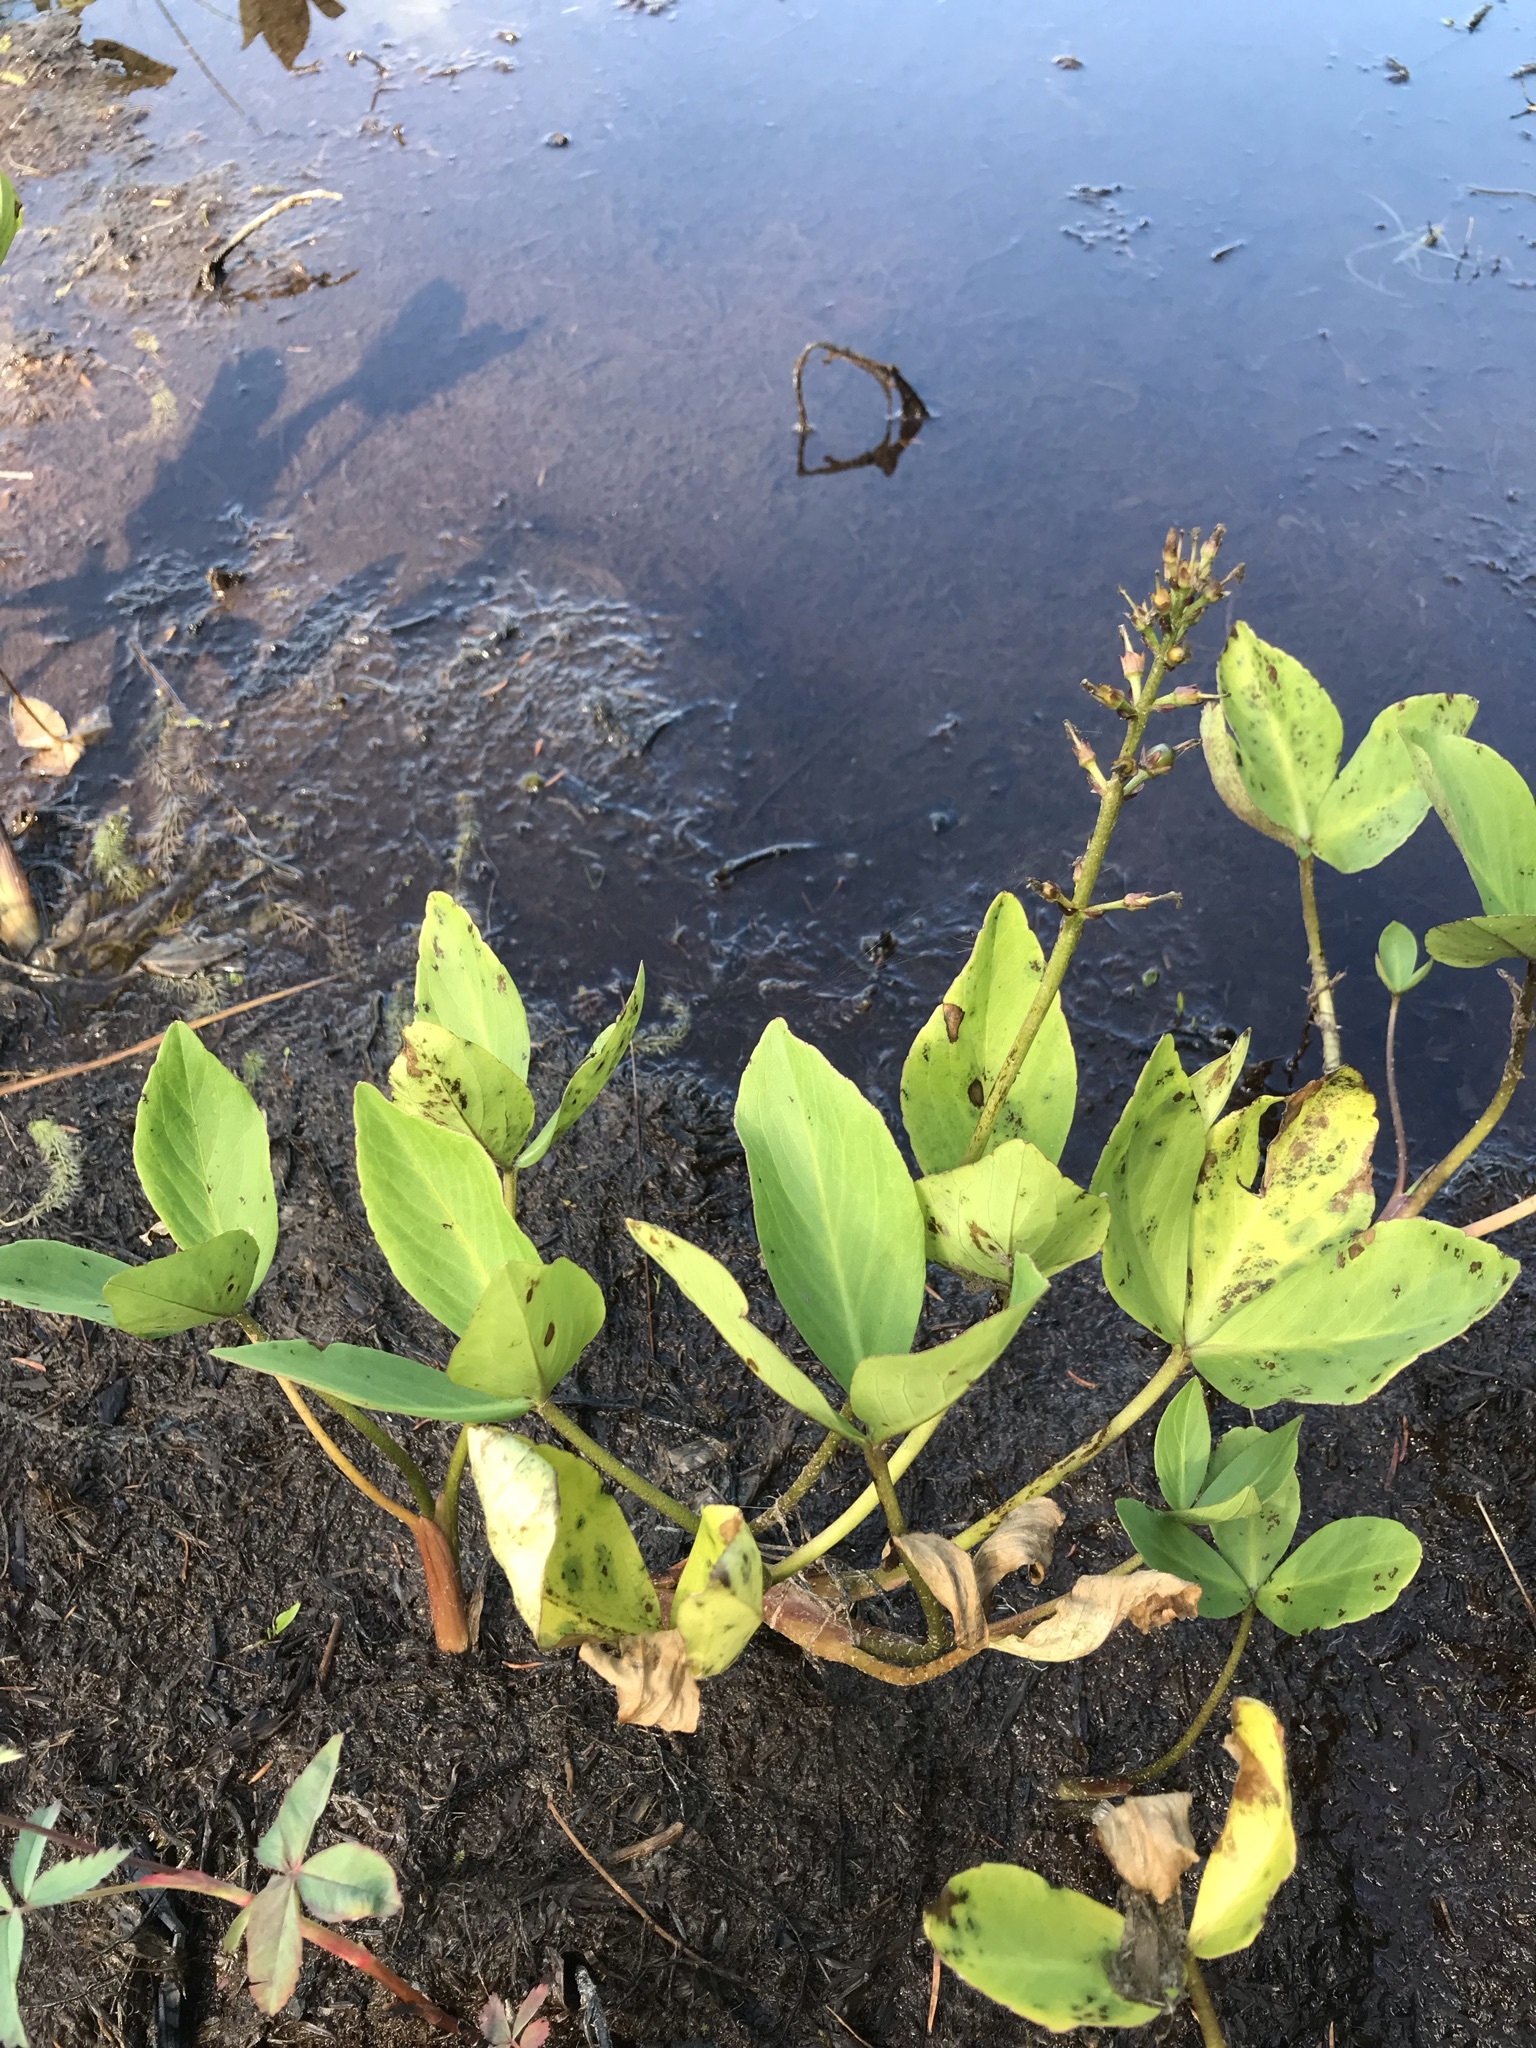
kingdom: Plantae
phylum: Tracheophyta
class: Magnoliopsida
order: Asterales
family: Menyanthaceae
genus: Menyanthes
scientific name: Menyanthes trifoliata
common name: Bogbean
